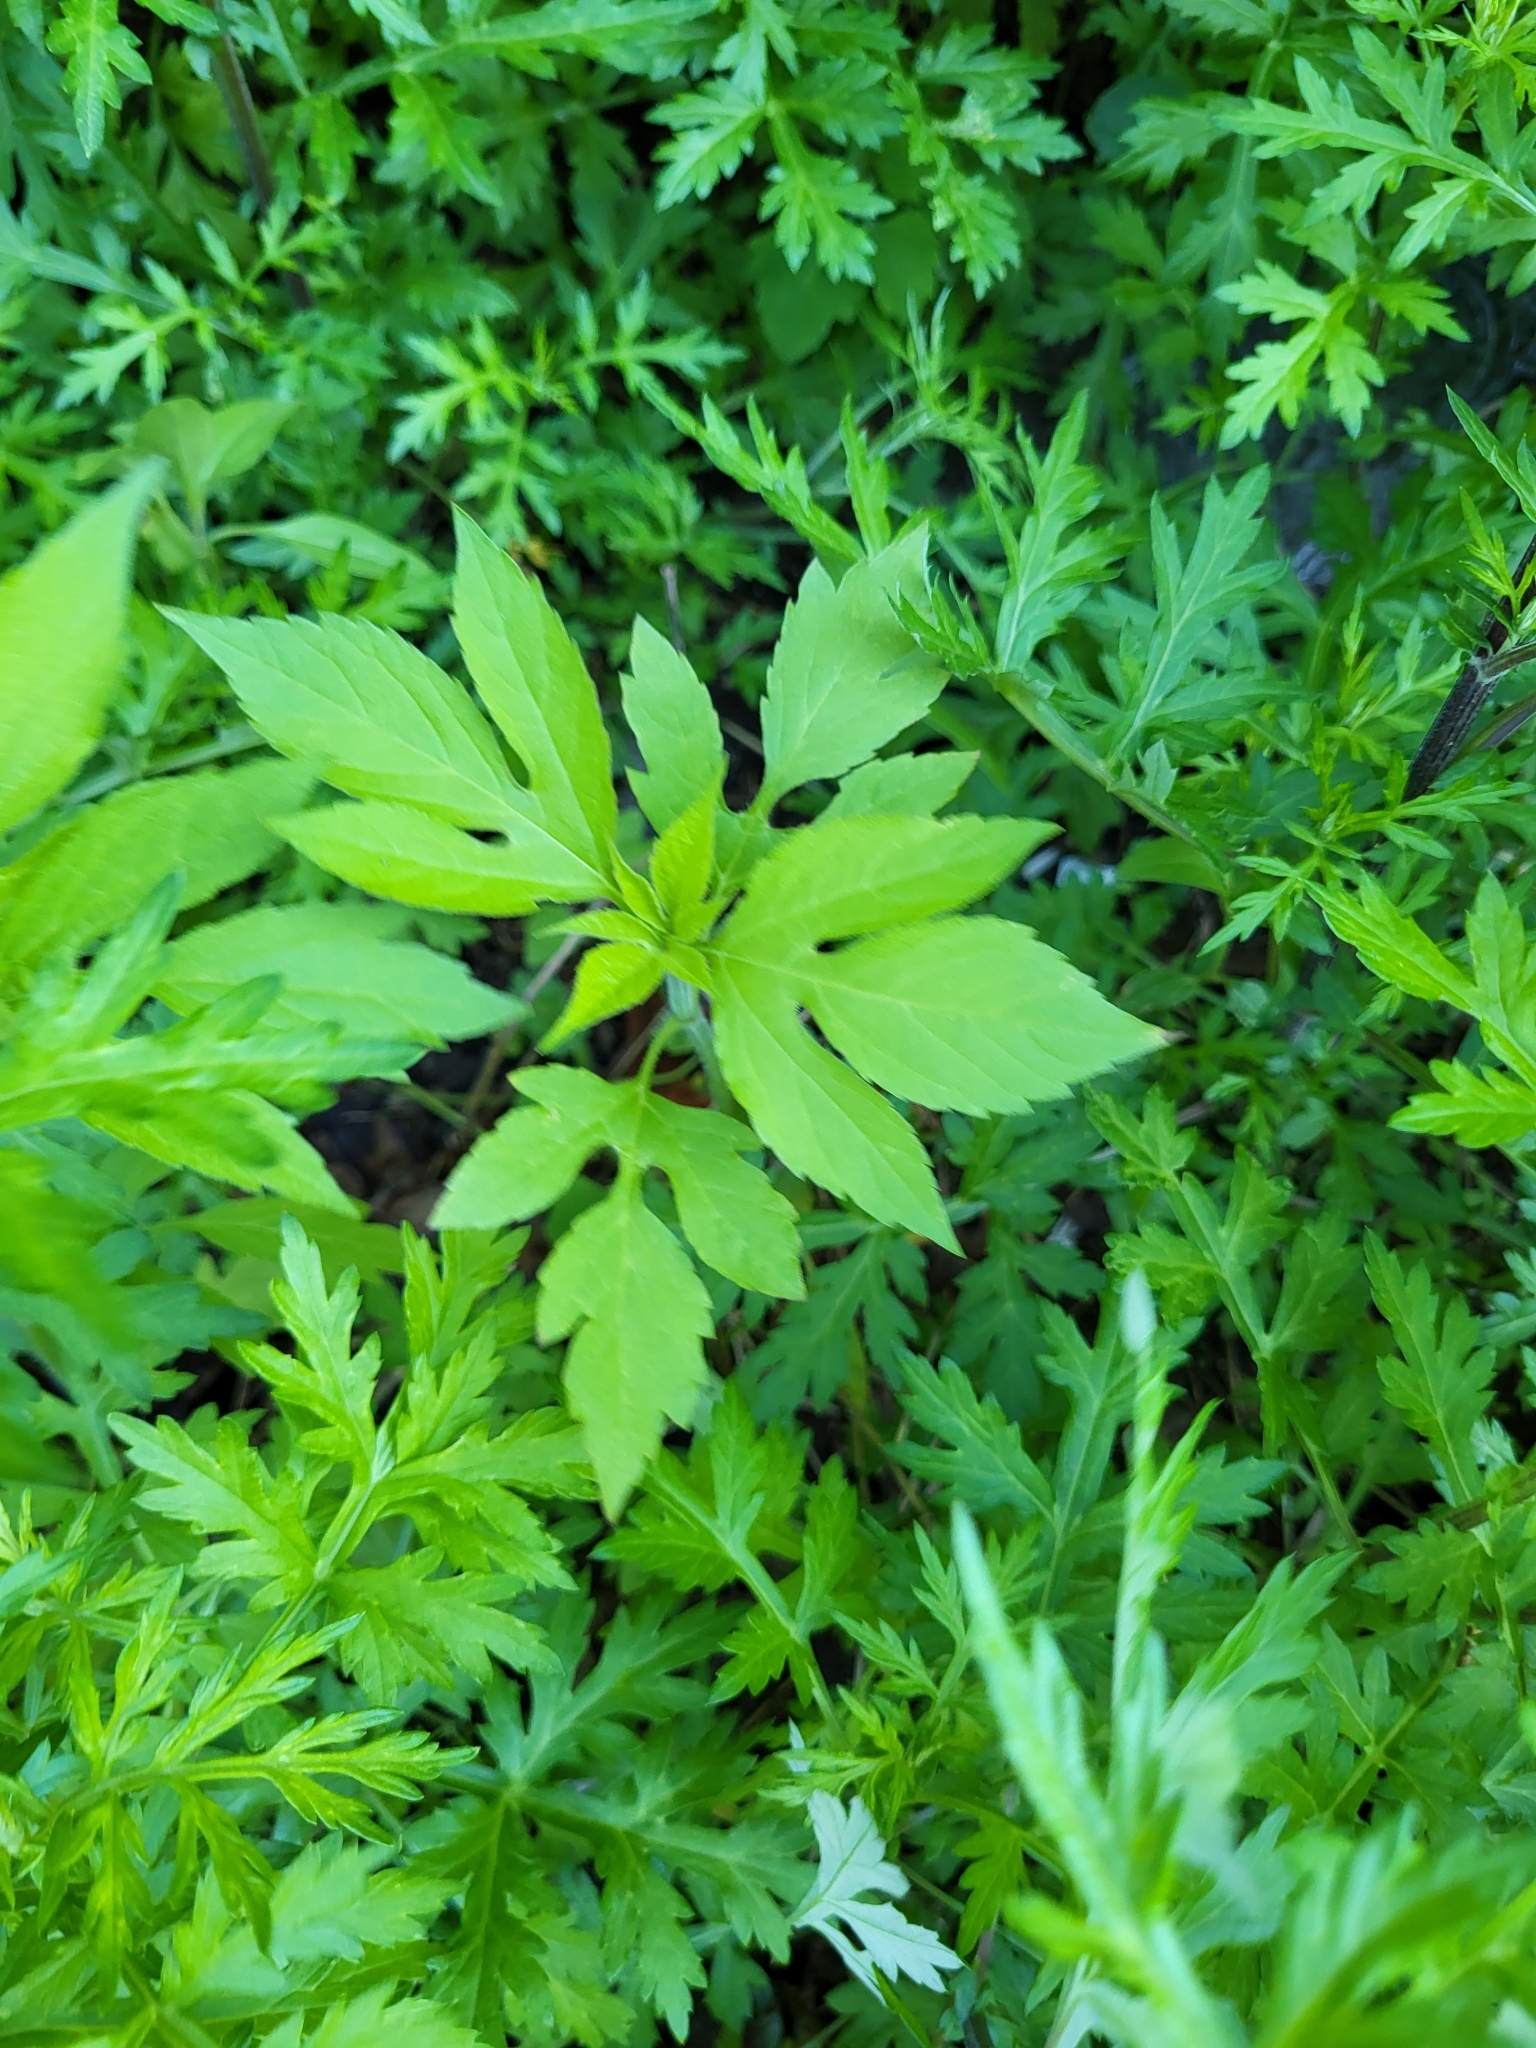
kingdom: Plantae
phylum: Tracheophyta
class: Magnoliopsida
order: Asterales
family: Asteraceae
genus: Ambrosia
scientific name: Ambrosia trifida
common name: Giant ragweed
